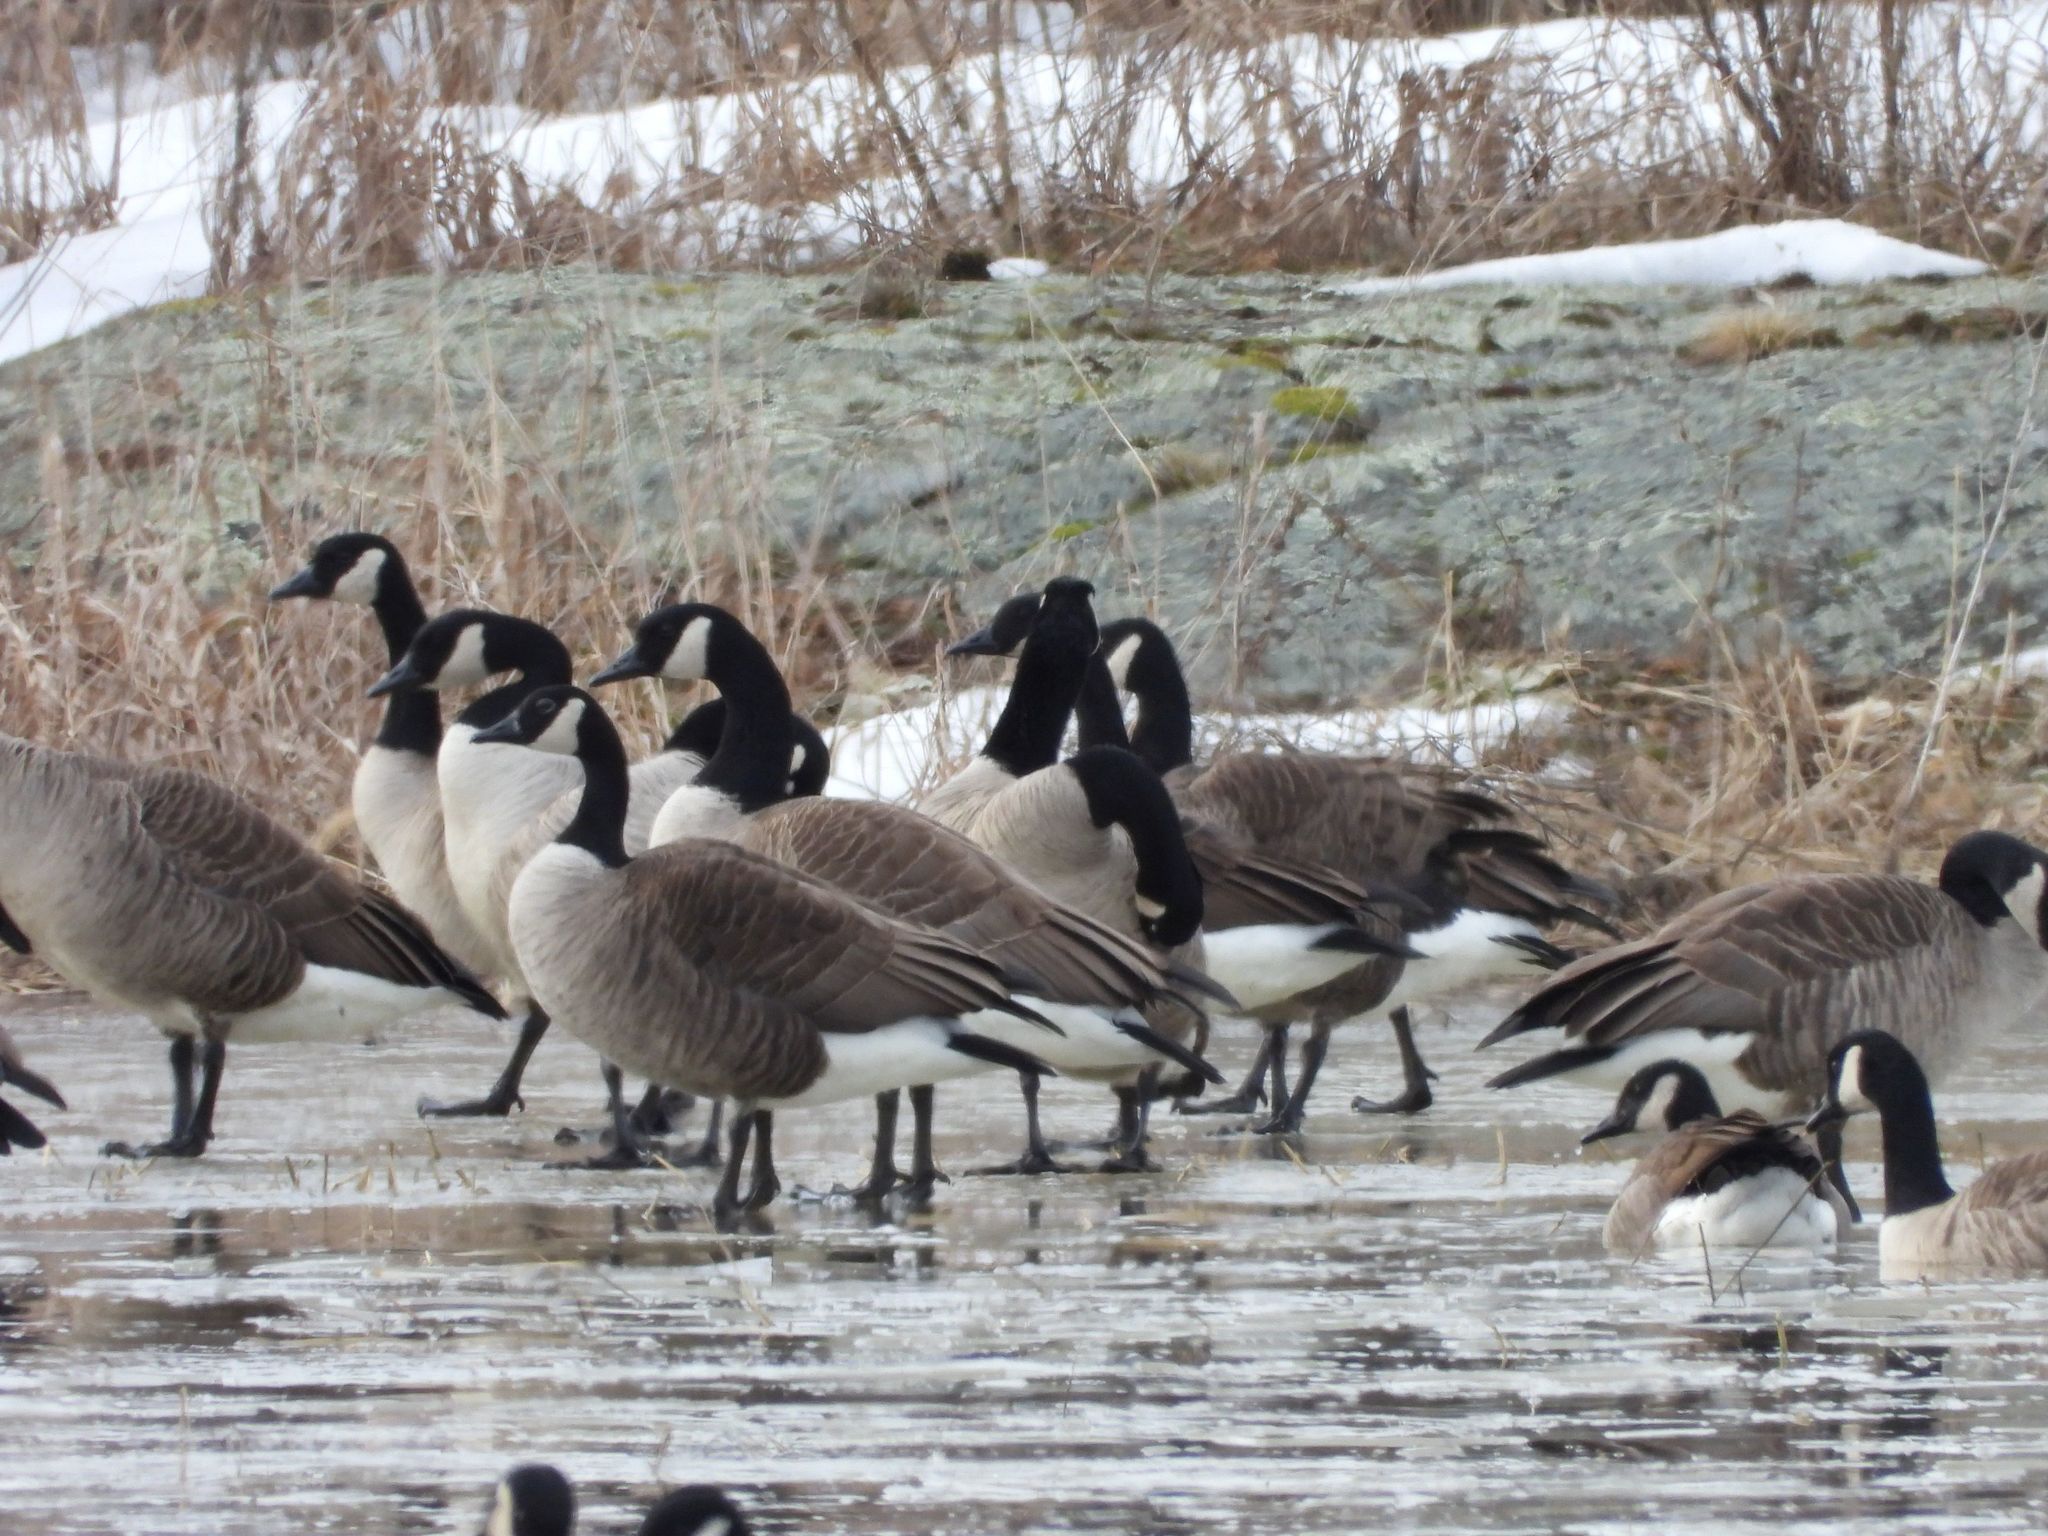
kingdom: Animalia
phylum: Chordata
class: Aves
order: Anseriformes
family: Anatidae
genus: Branta
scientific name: Branta canadensis
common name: Canada goose
